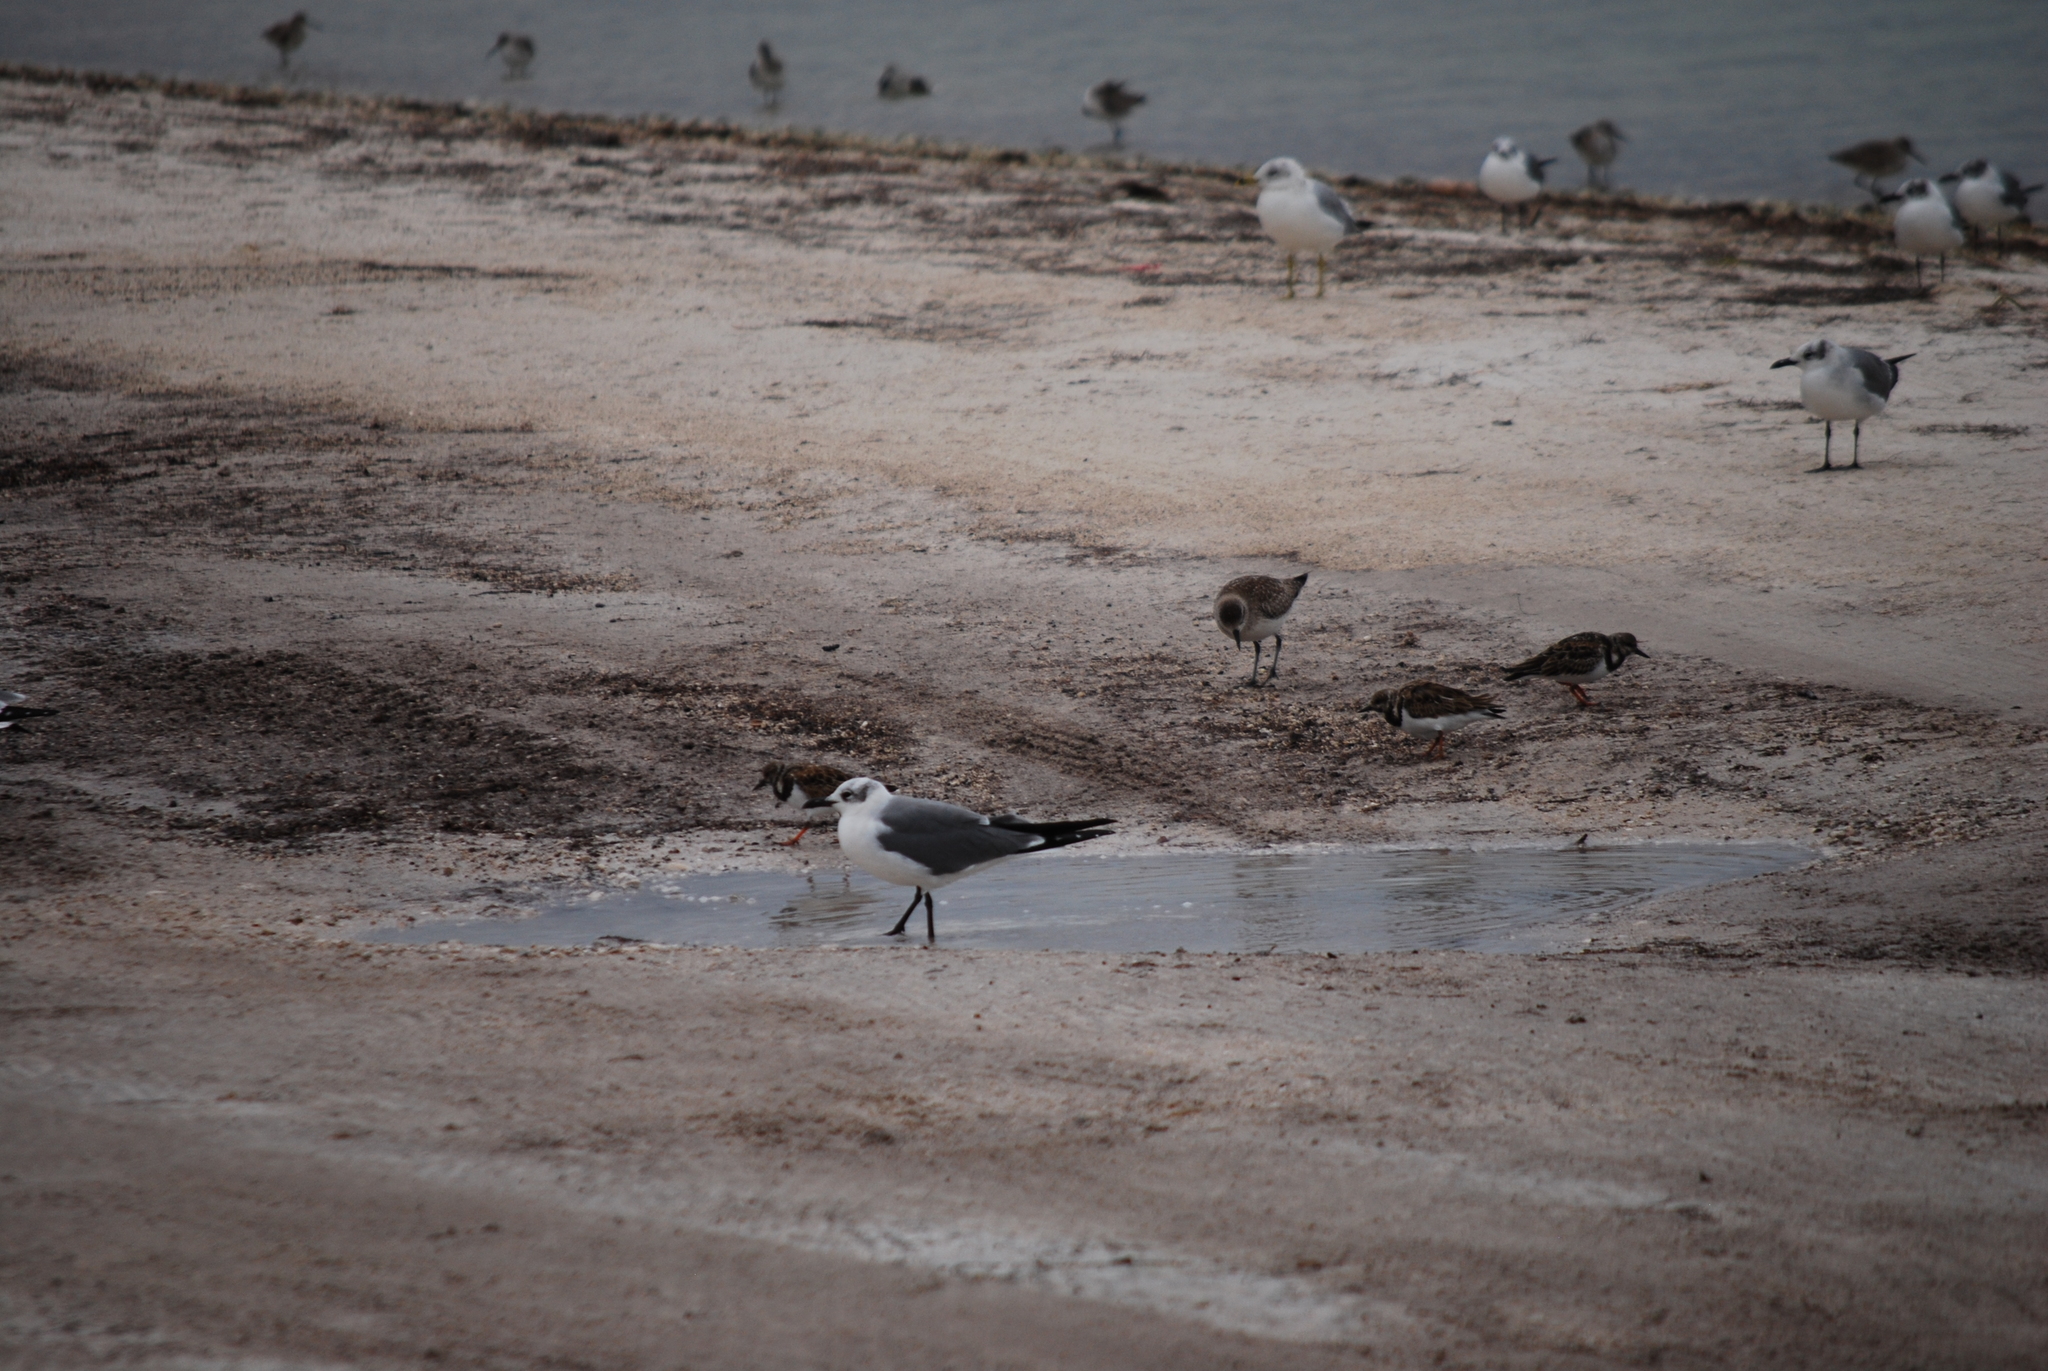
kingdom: Animalia
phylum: Chordata
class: Aves
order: Charadriiformes
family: Scolopacidae
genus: Arenaria
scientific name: Arenaria interpres
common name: Ruddy turnstone
